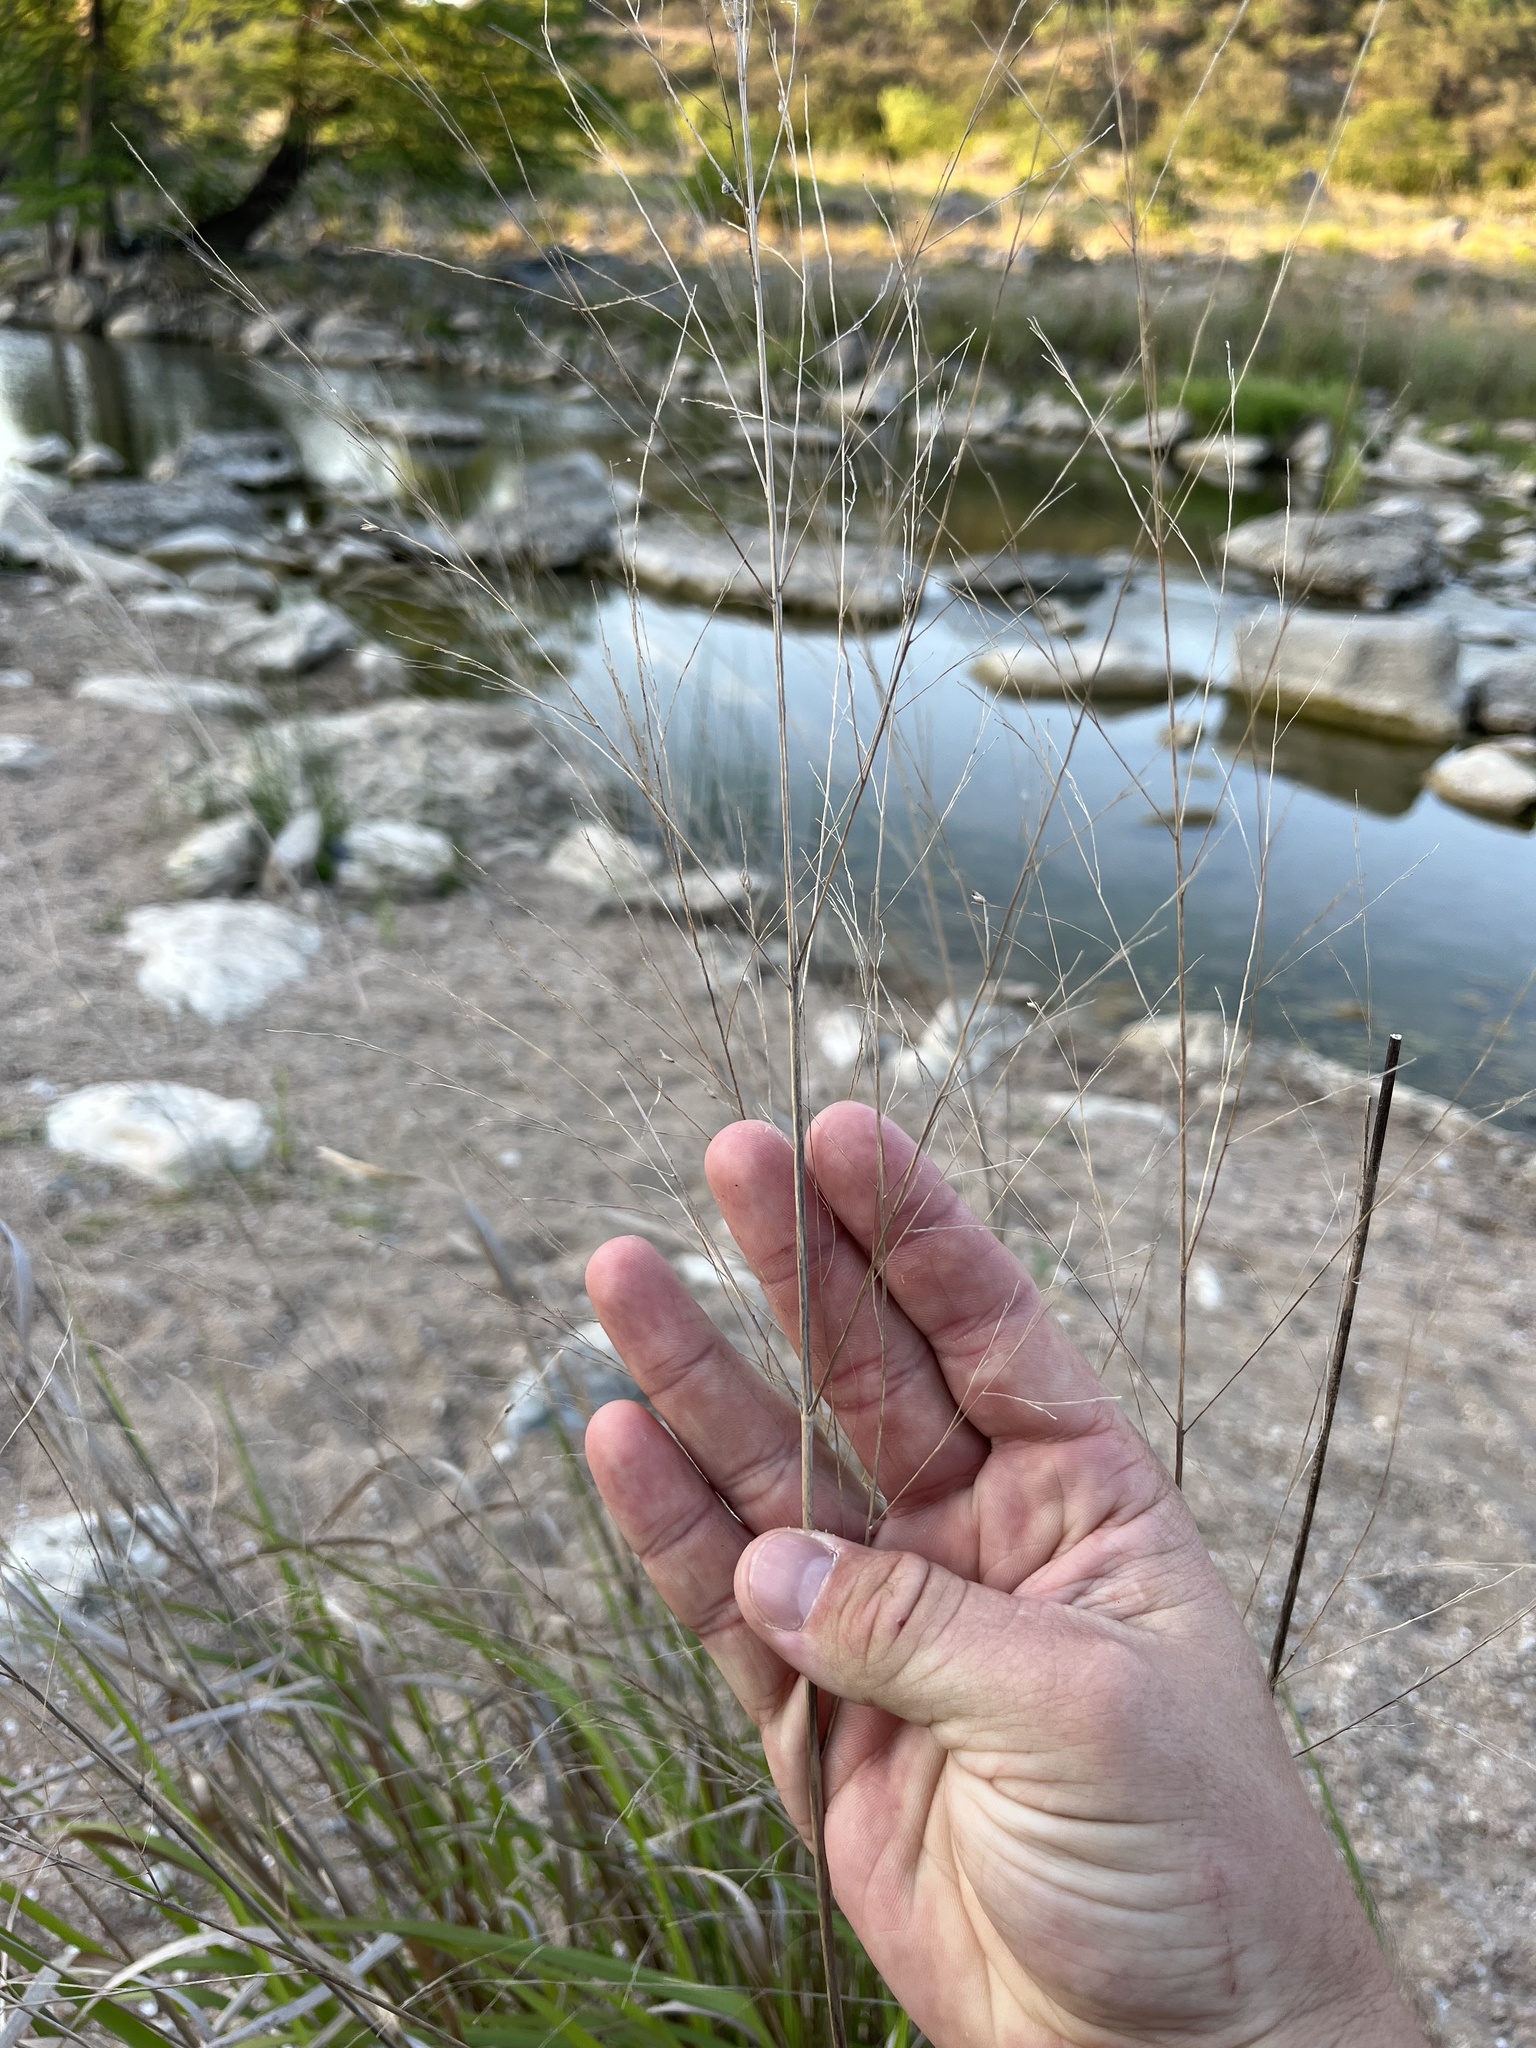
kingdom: Plantae
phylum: Tracheophyta
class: Liliopsida
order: Poales
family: Poaceae
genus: Panicum
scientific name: Panicum virgatum
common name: Switchgrass
